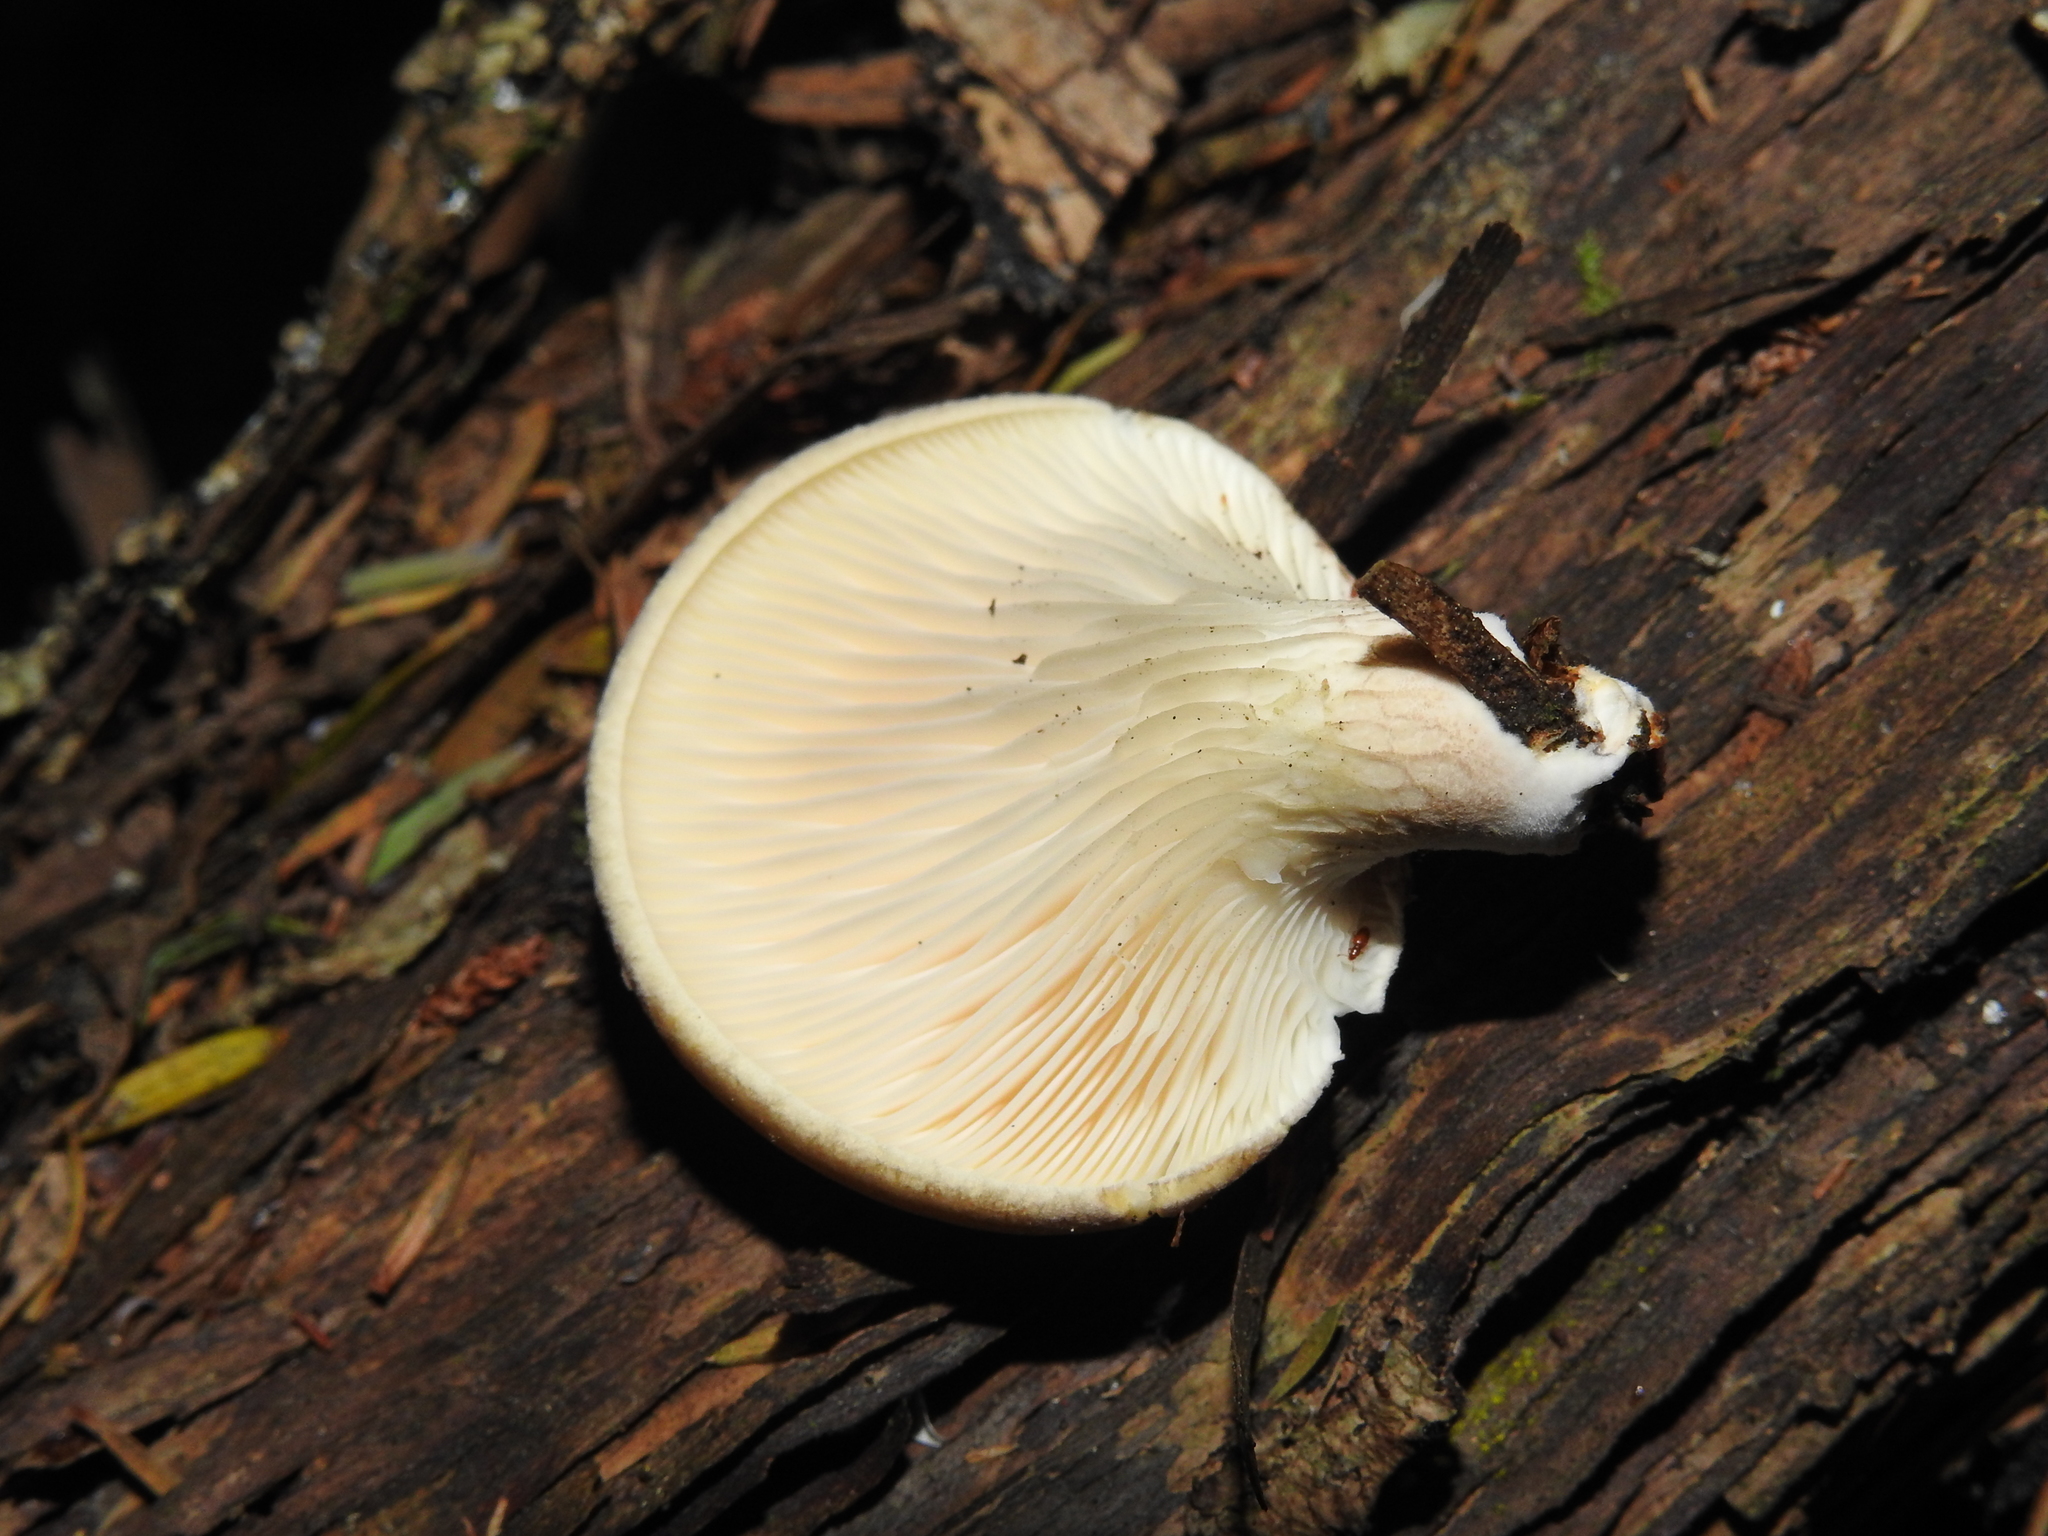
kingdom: Fungi
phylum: Basidiomycota
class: Agaricomycetes
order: Agaricales
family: Pleurotaceae
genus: Pleurotus
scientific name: Pleurotus australis
